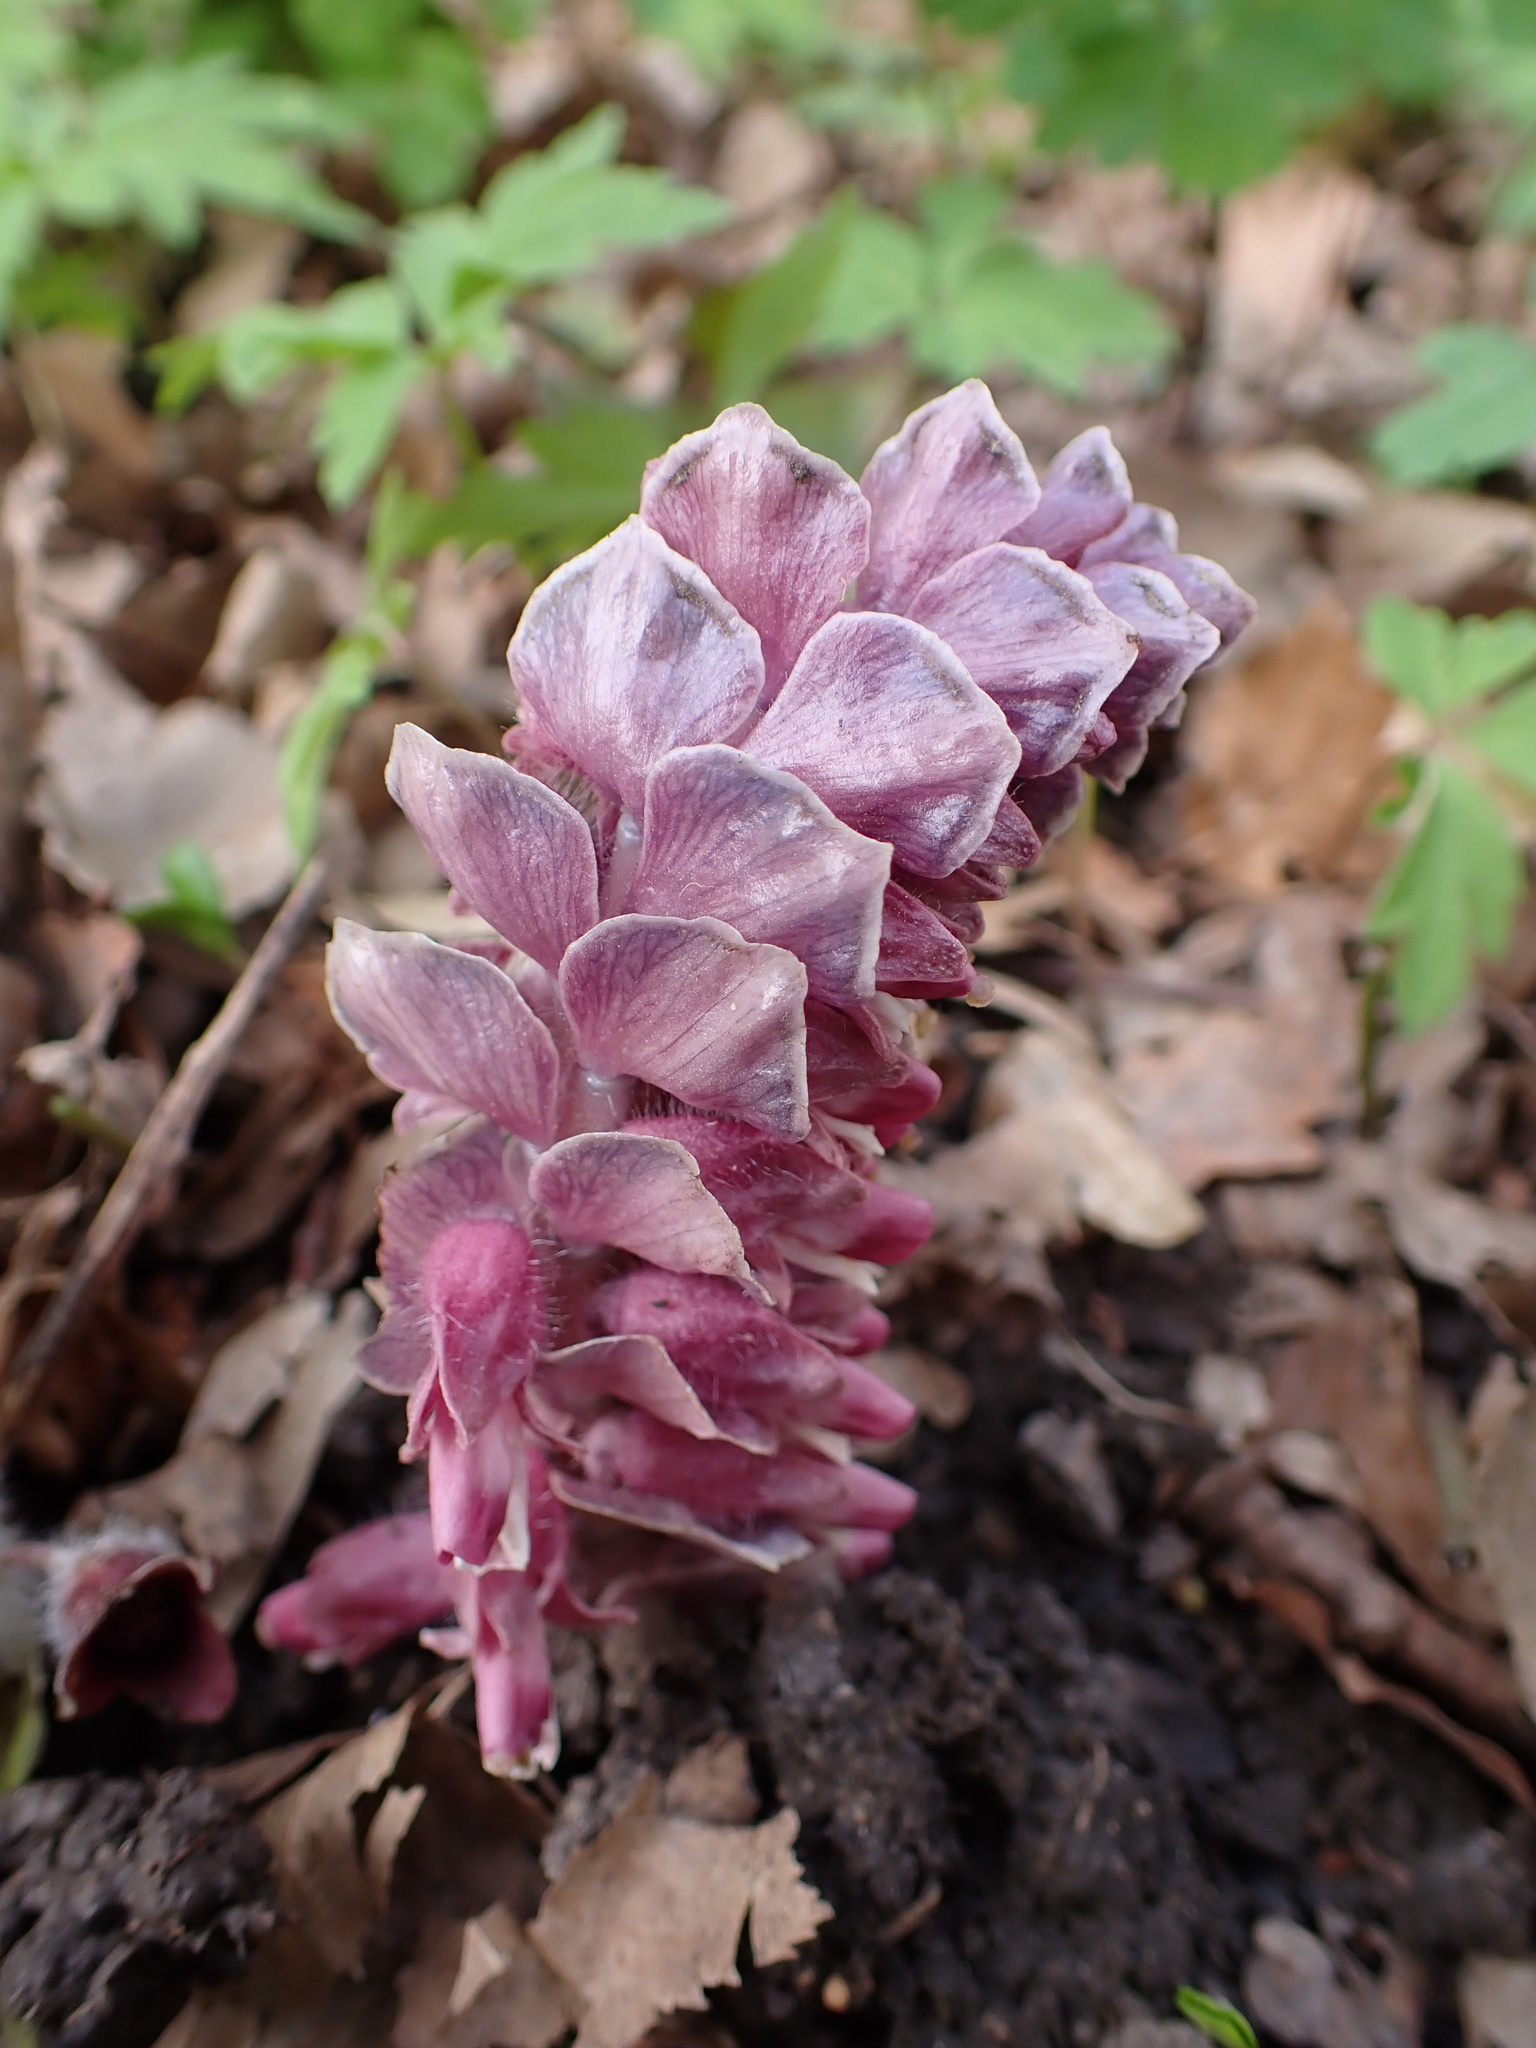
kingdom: Plantae
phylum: Tracheophyta
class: Magnoliopsida
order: Lamiales
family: Orobanchaceae
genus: Lathraea
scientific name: Lathraea squamaria
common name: Toothwort
